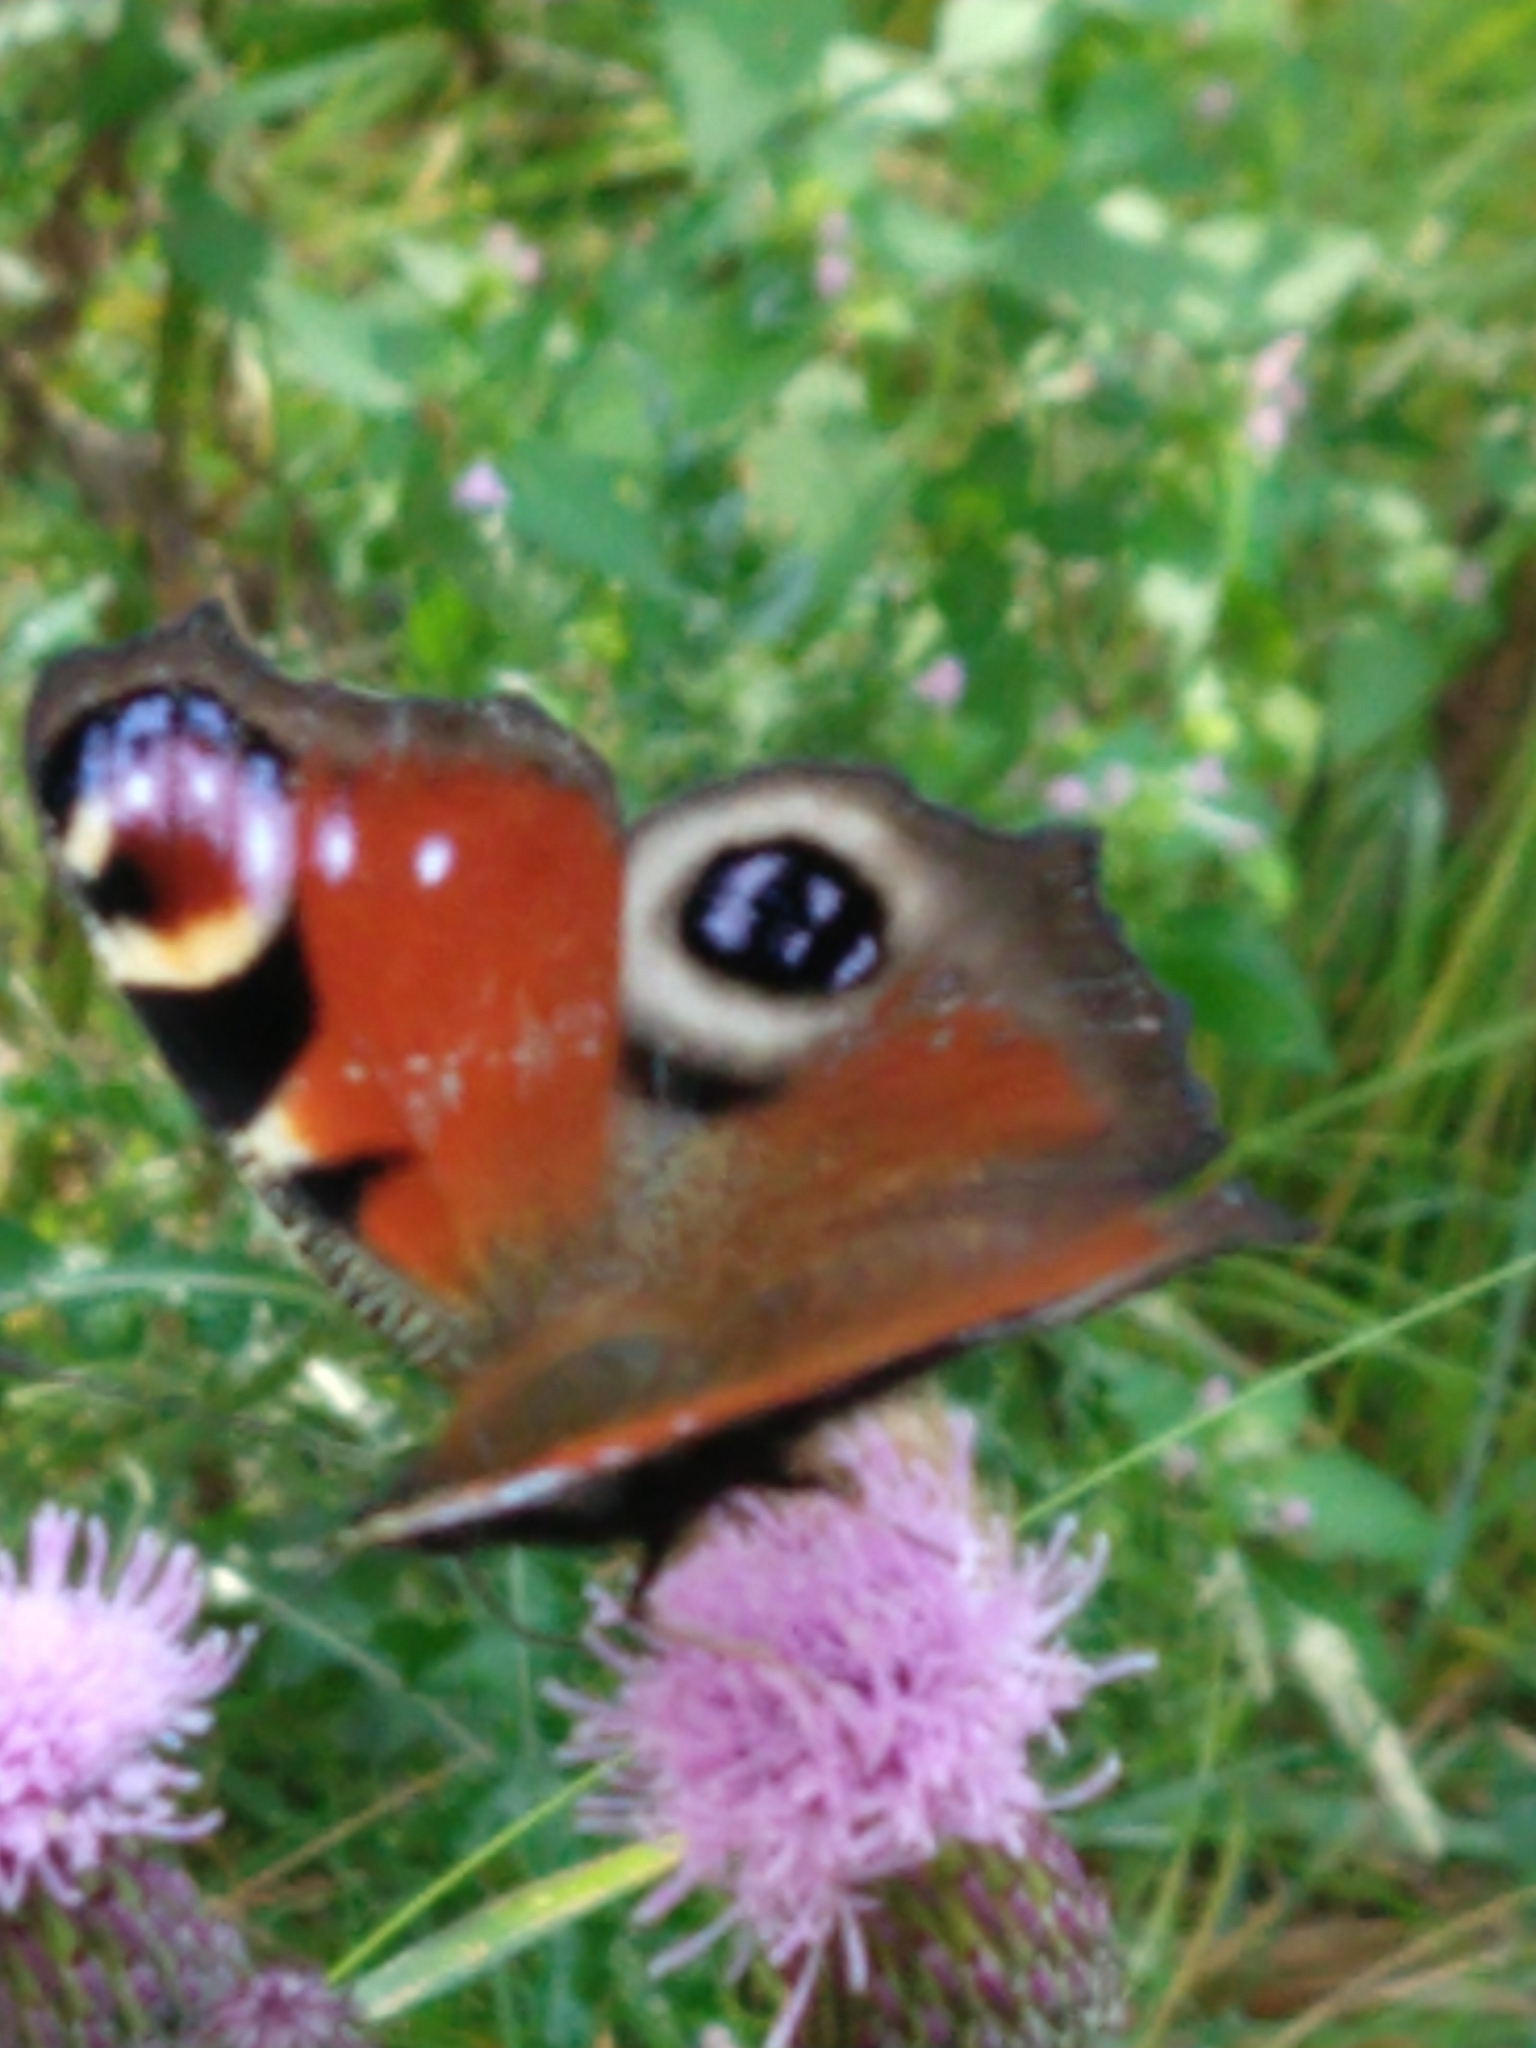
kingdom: Animalia
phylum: Arthropoda
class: Insecta
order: Lepidoptera
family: Nymphalidae
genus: Aglais
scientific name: Aglais io
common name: Peacock
